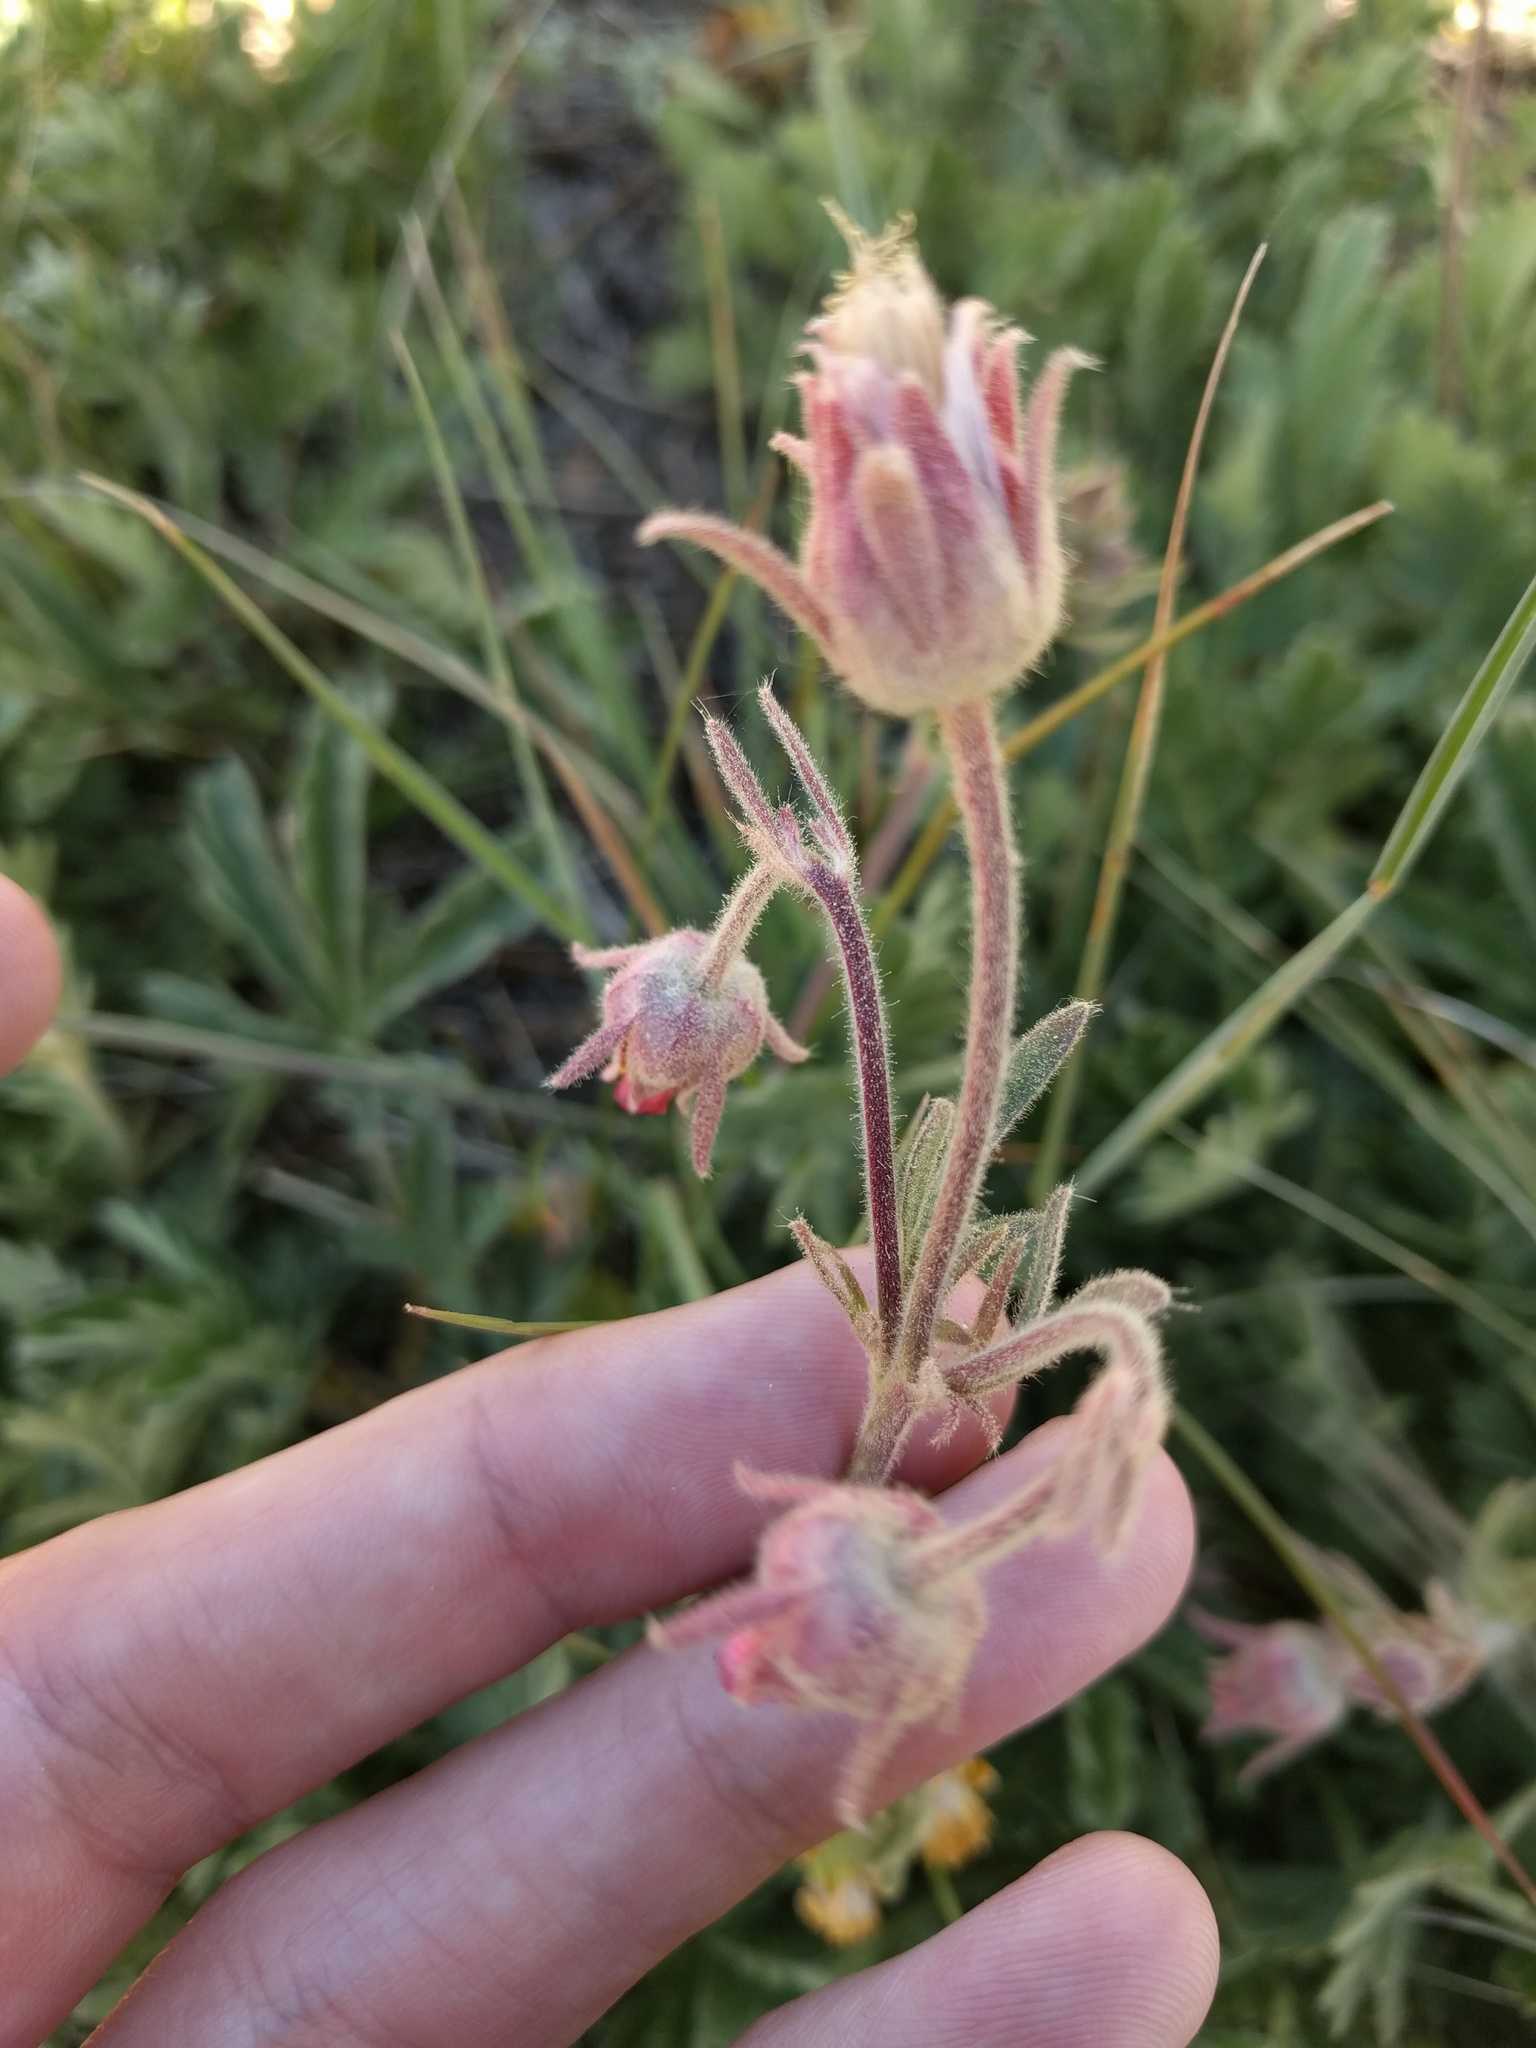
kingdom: Plantae
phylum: Tracheophyta
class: Magnoliopsida
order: Rosales
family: Rosaceae
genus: Geum
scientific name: Geum triflorum
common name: Old man's whiskers
